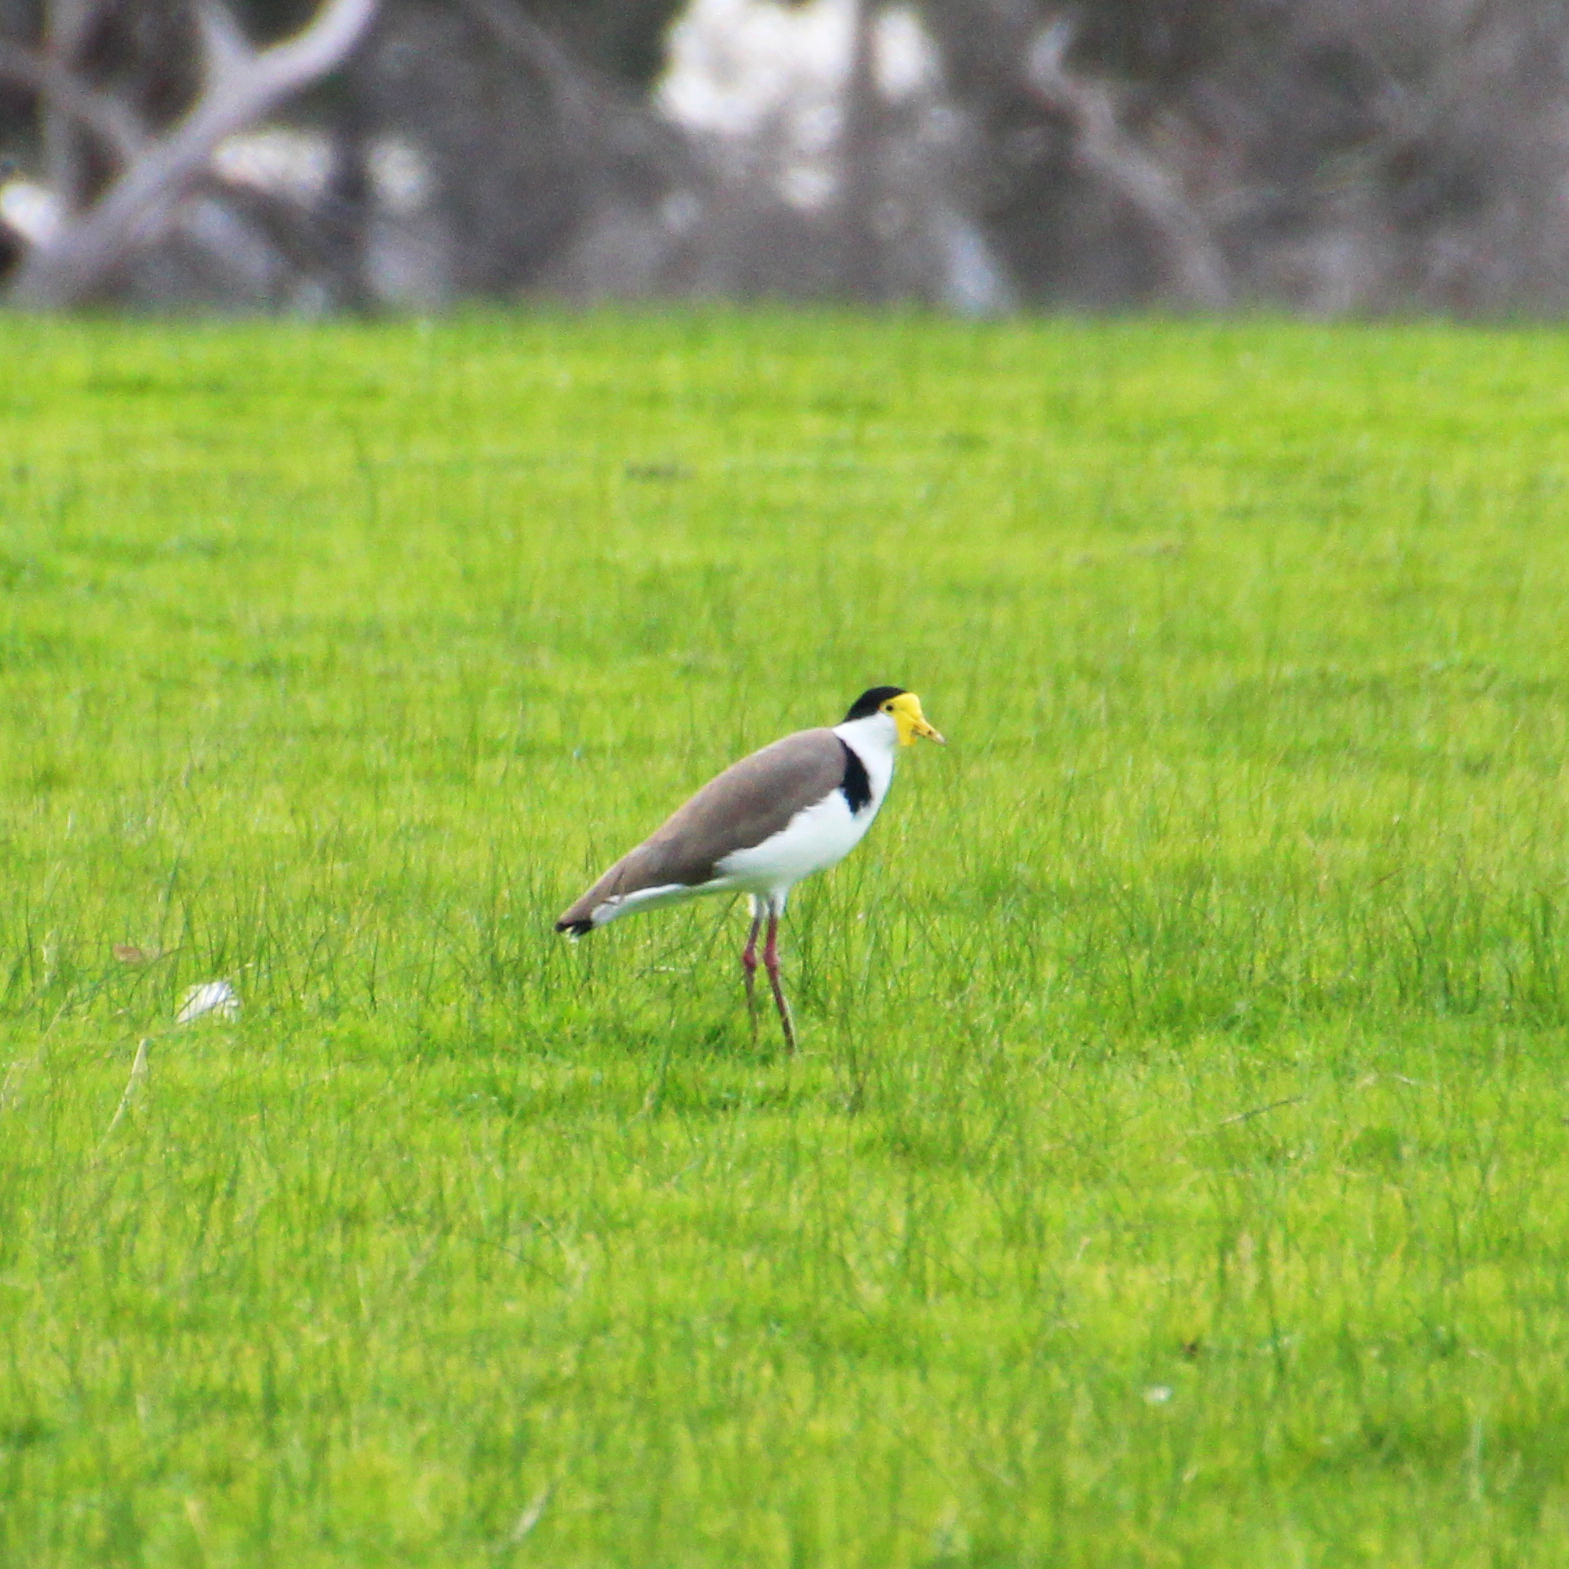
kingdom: Animalia
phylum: Chordata
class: Aves
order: Charadriiformes
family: Charadriidae
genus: Vanellus
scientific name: Vanellus miles
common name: Masked lapwing
